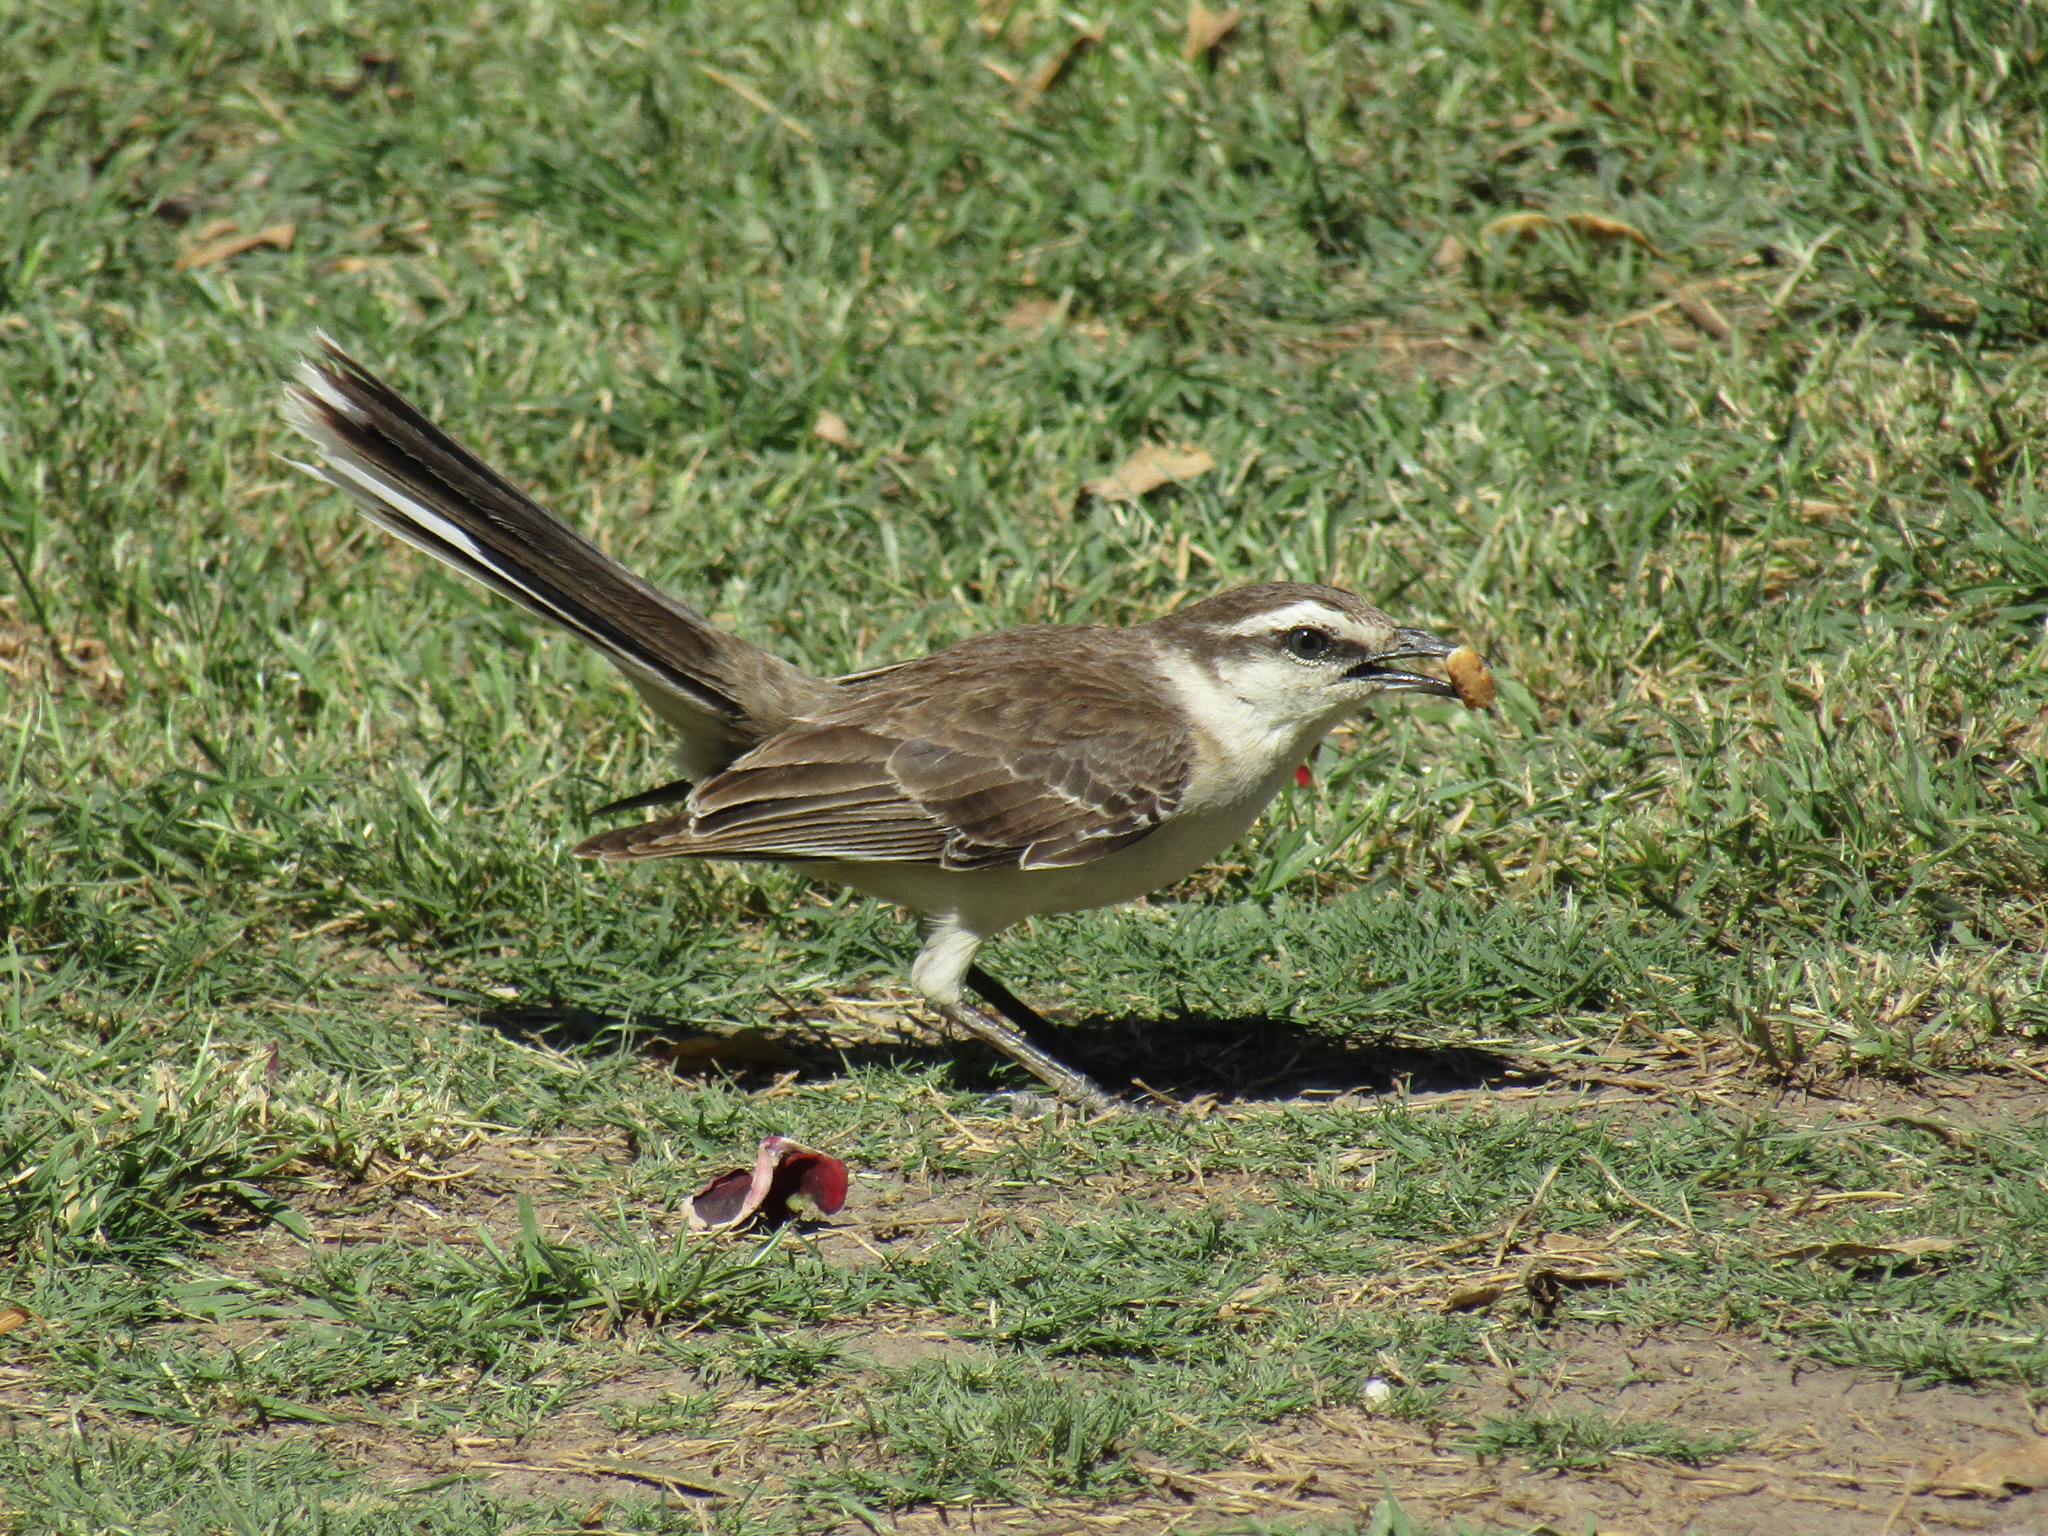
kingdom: Animalia
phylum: Chordata
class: Aves
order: Passeriformes
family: Mimidae
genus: Mimus
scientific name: Mimus saturninus
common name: Chalk-browed mockingbird
